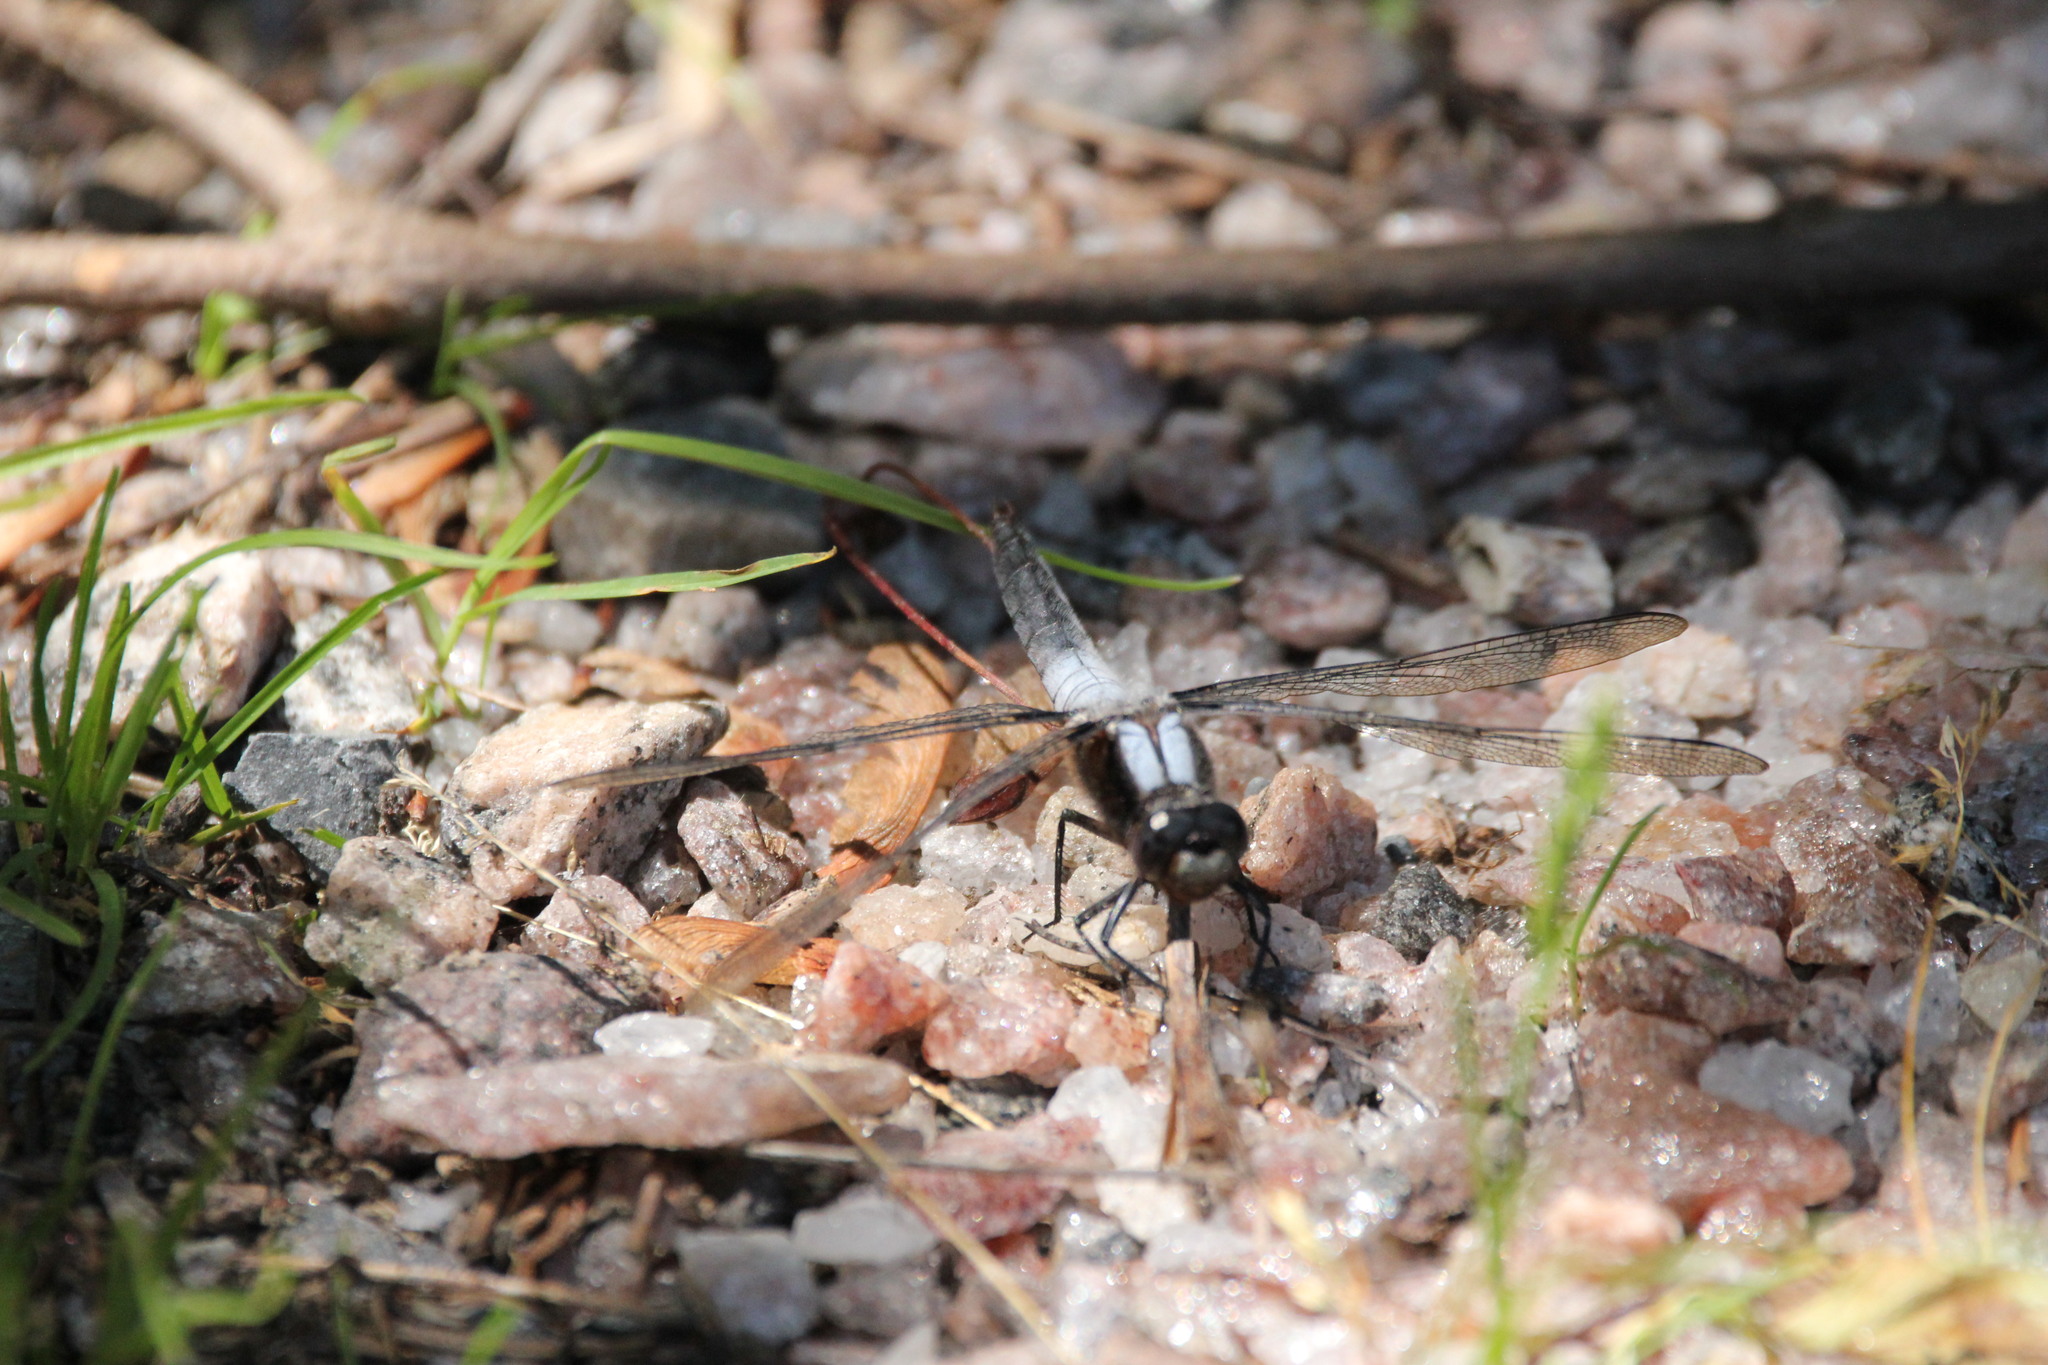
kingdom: Animalia
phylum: Arthropoda
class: Insecta
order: Odonata
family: Libellulidae
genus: Ladona
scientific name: Ladona julia
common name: Chalk-fronted corporal
